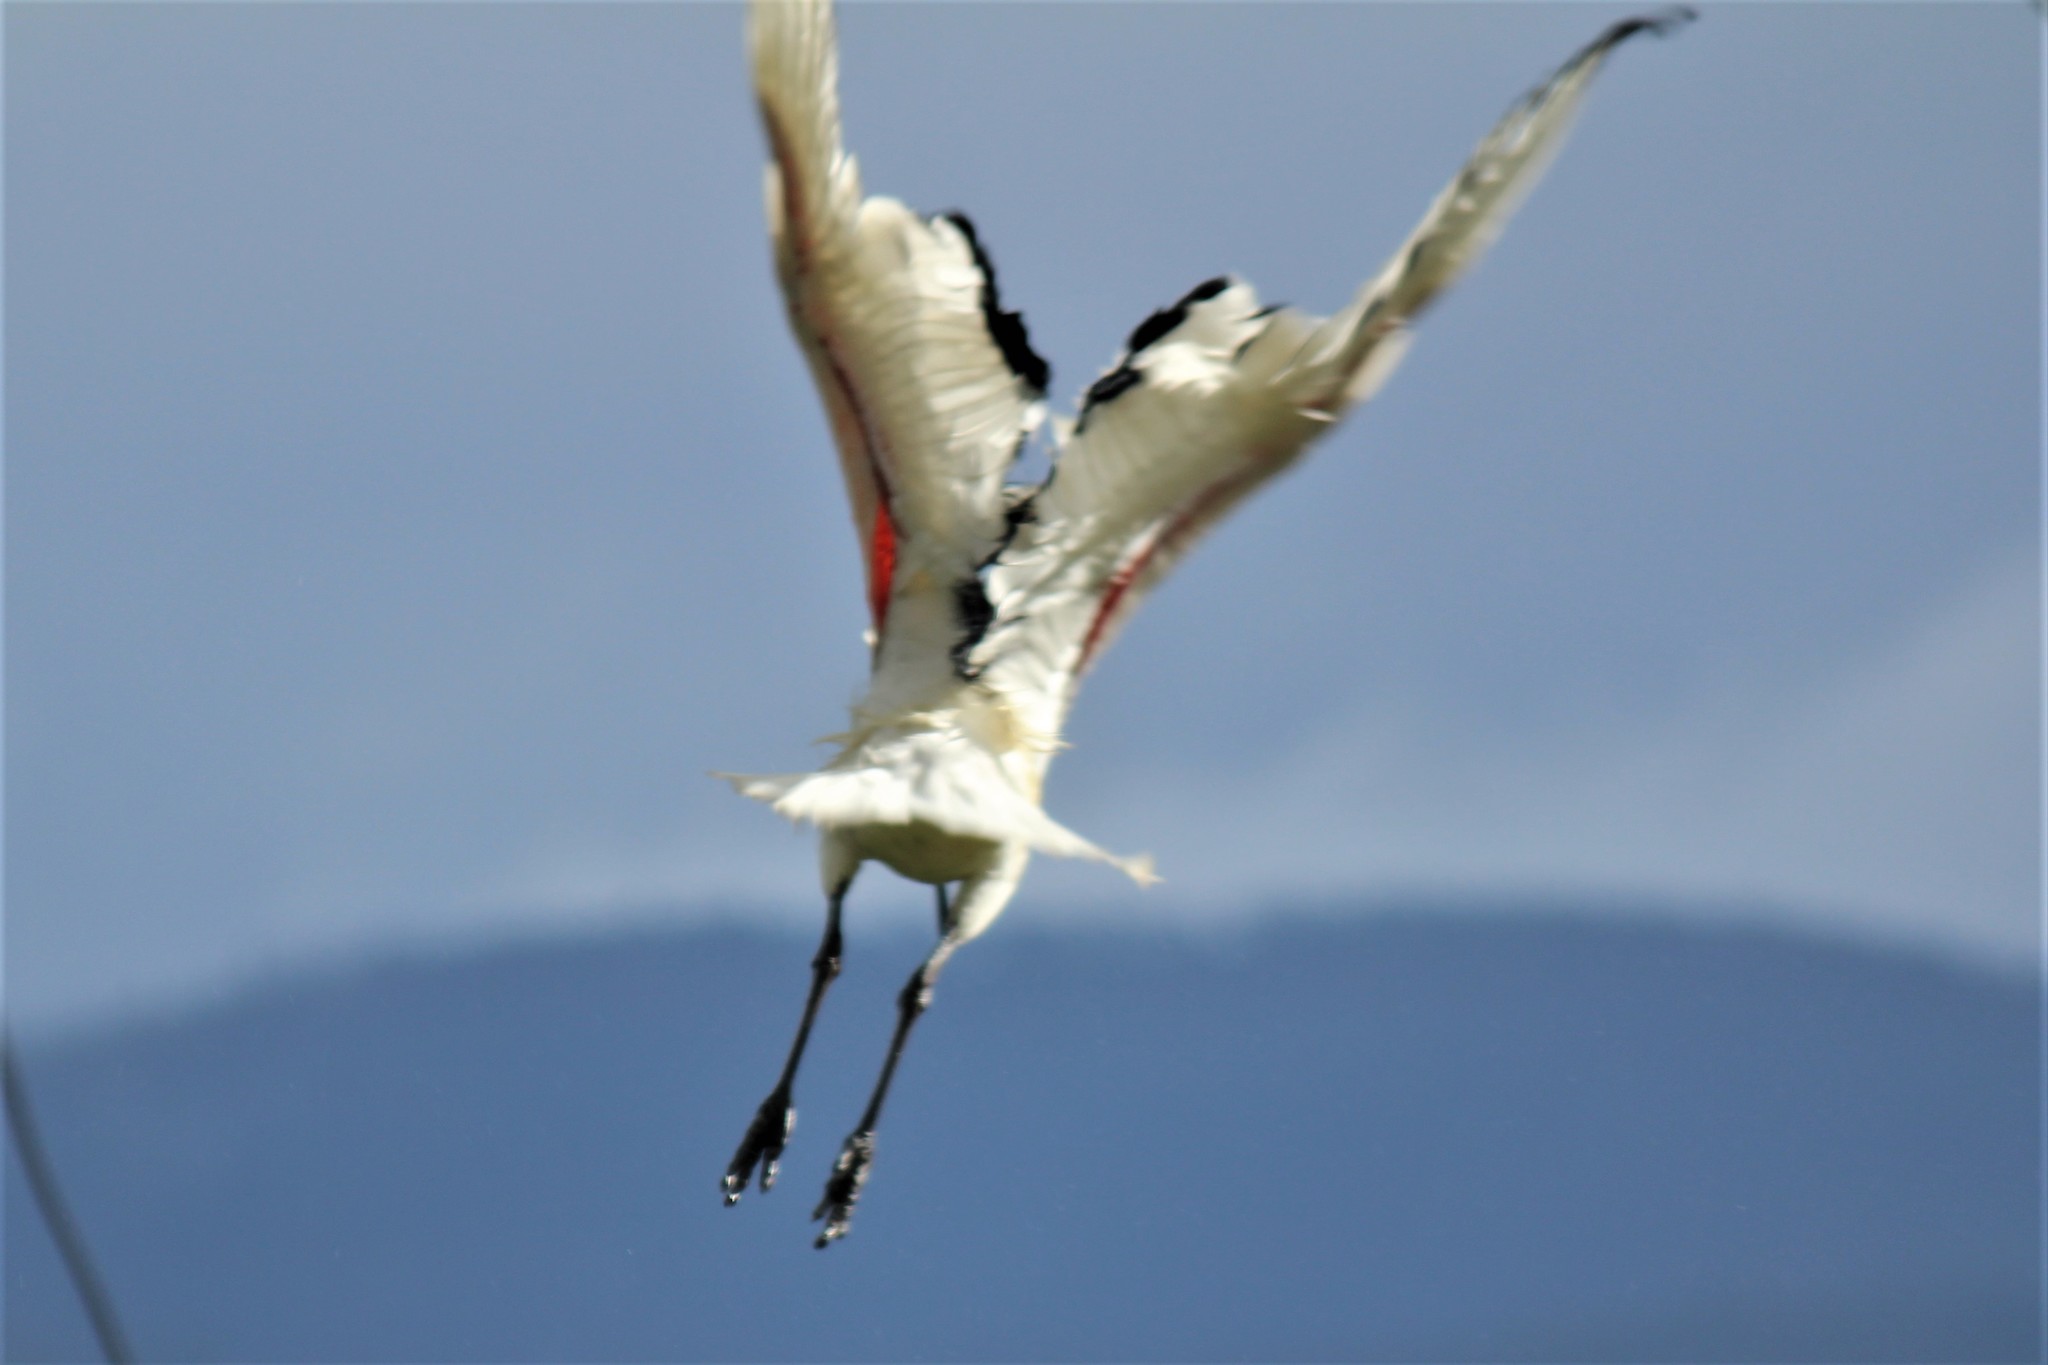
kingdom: Animalia
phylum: Chordata
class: Aves
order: Pelecaniformes
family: Threskiornithidae
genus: Threskiornis
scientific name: Threskiornis aethiopicus
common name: Sacred ibis
